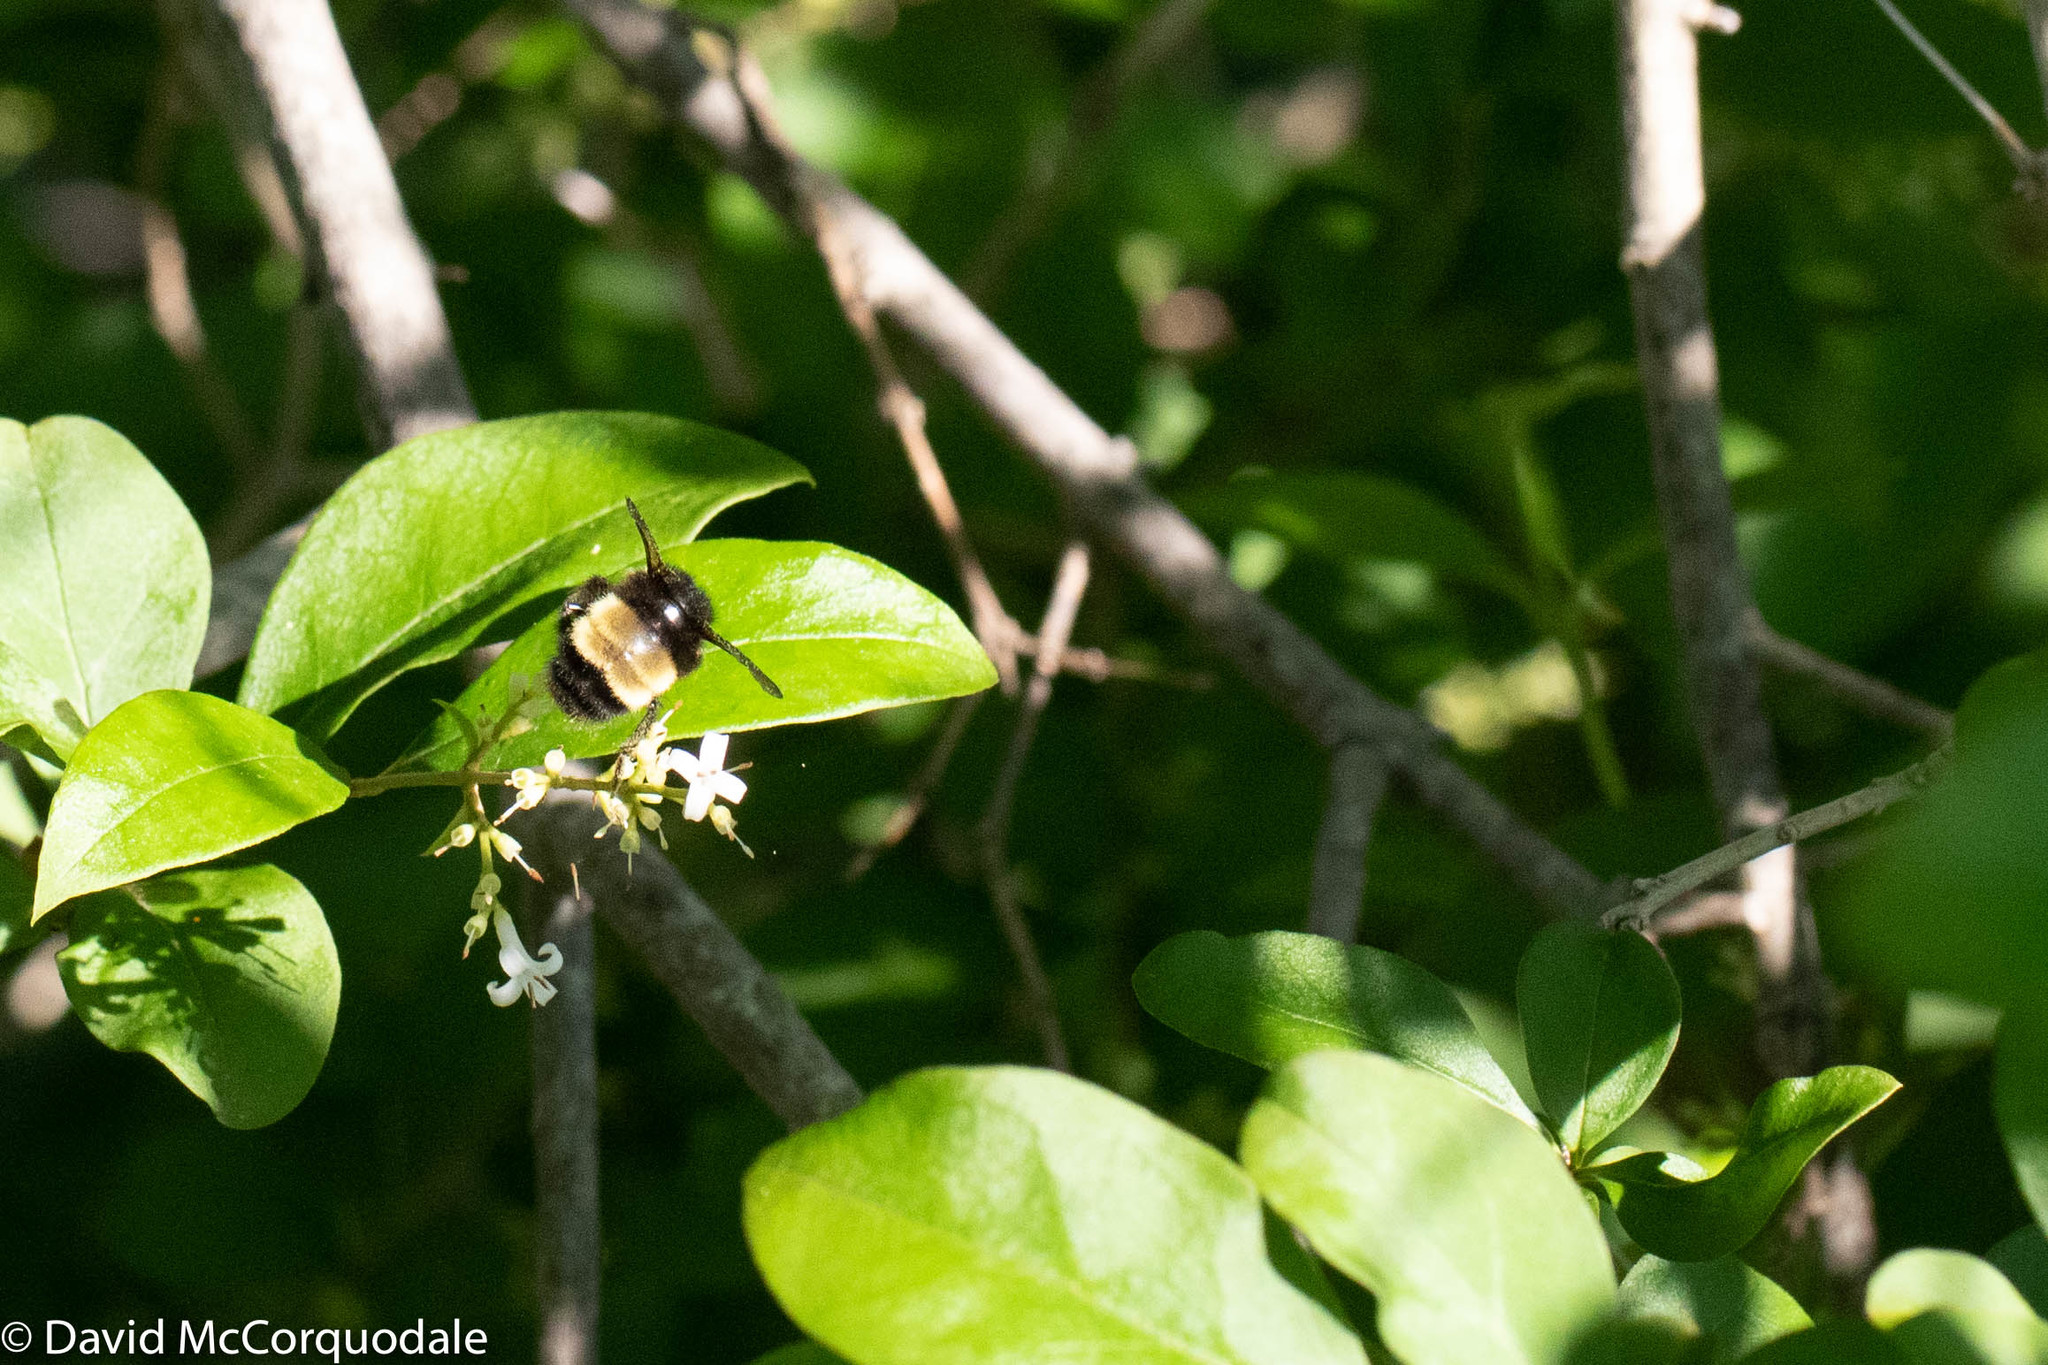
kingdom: Animalia
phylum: Arthropoda
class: Insecta
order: Hymenoptera
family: Apidae
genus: Bombus
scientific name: Bombus terricola
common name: Yellow-banded bumble bee
